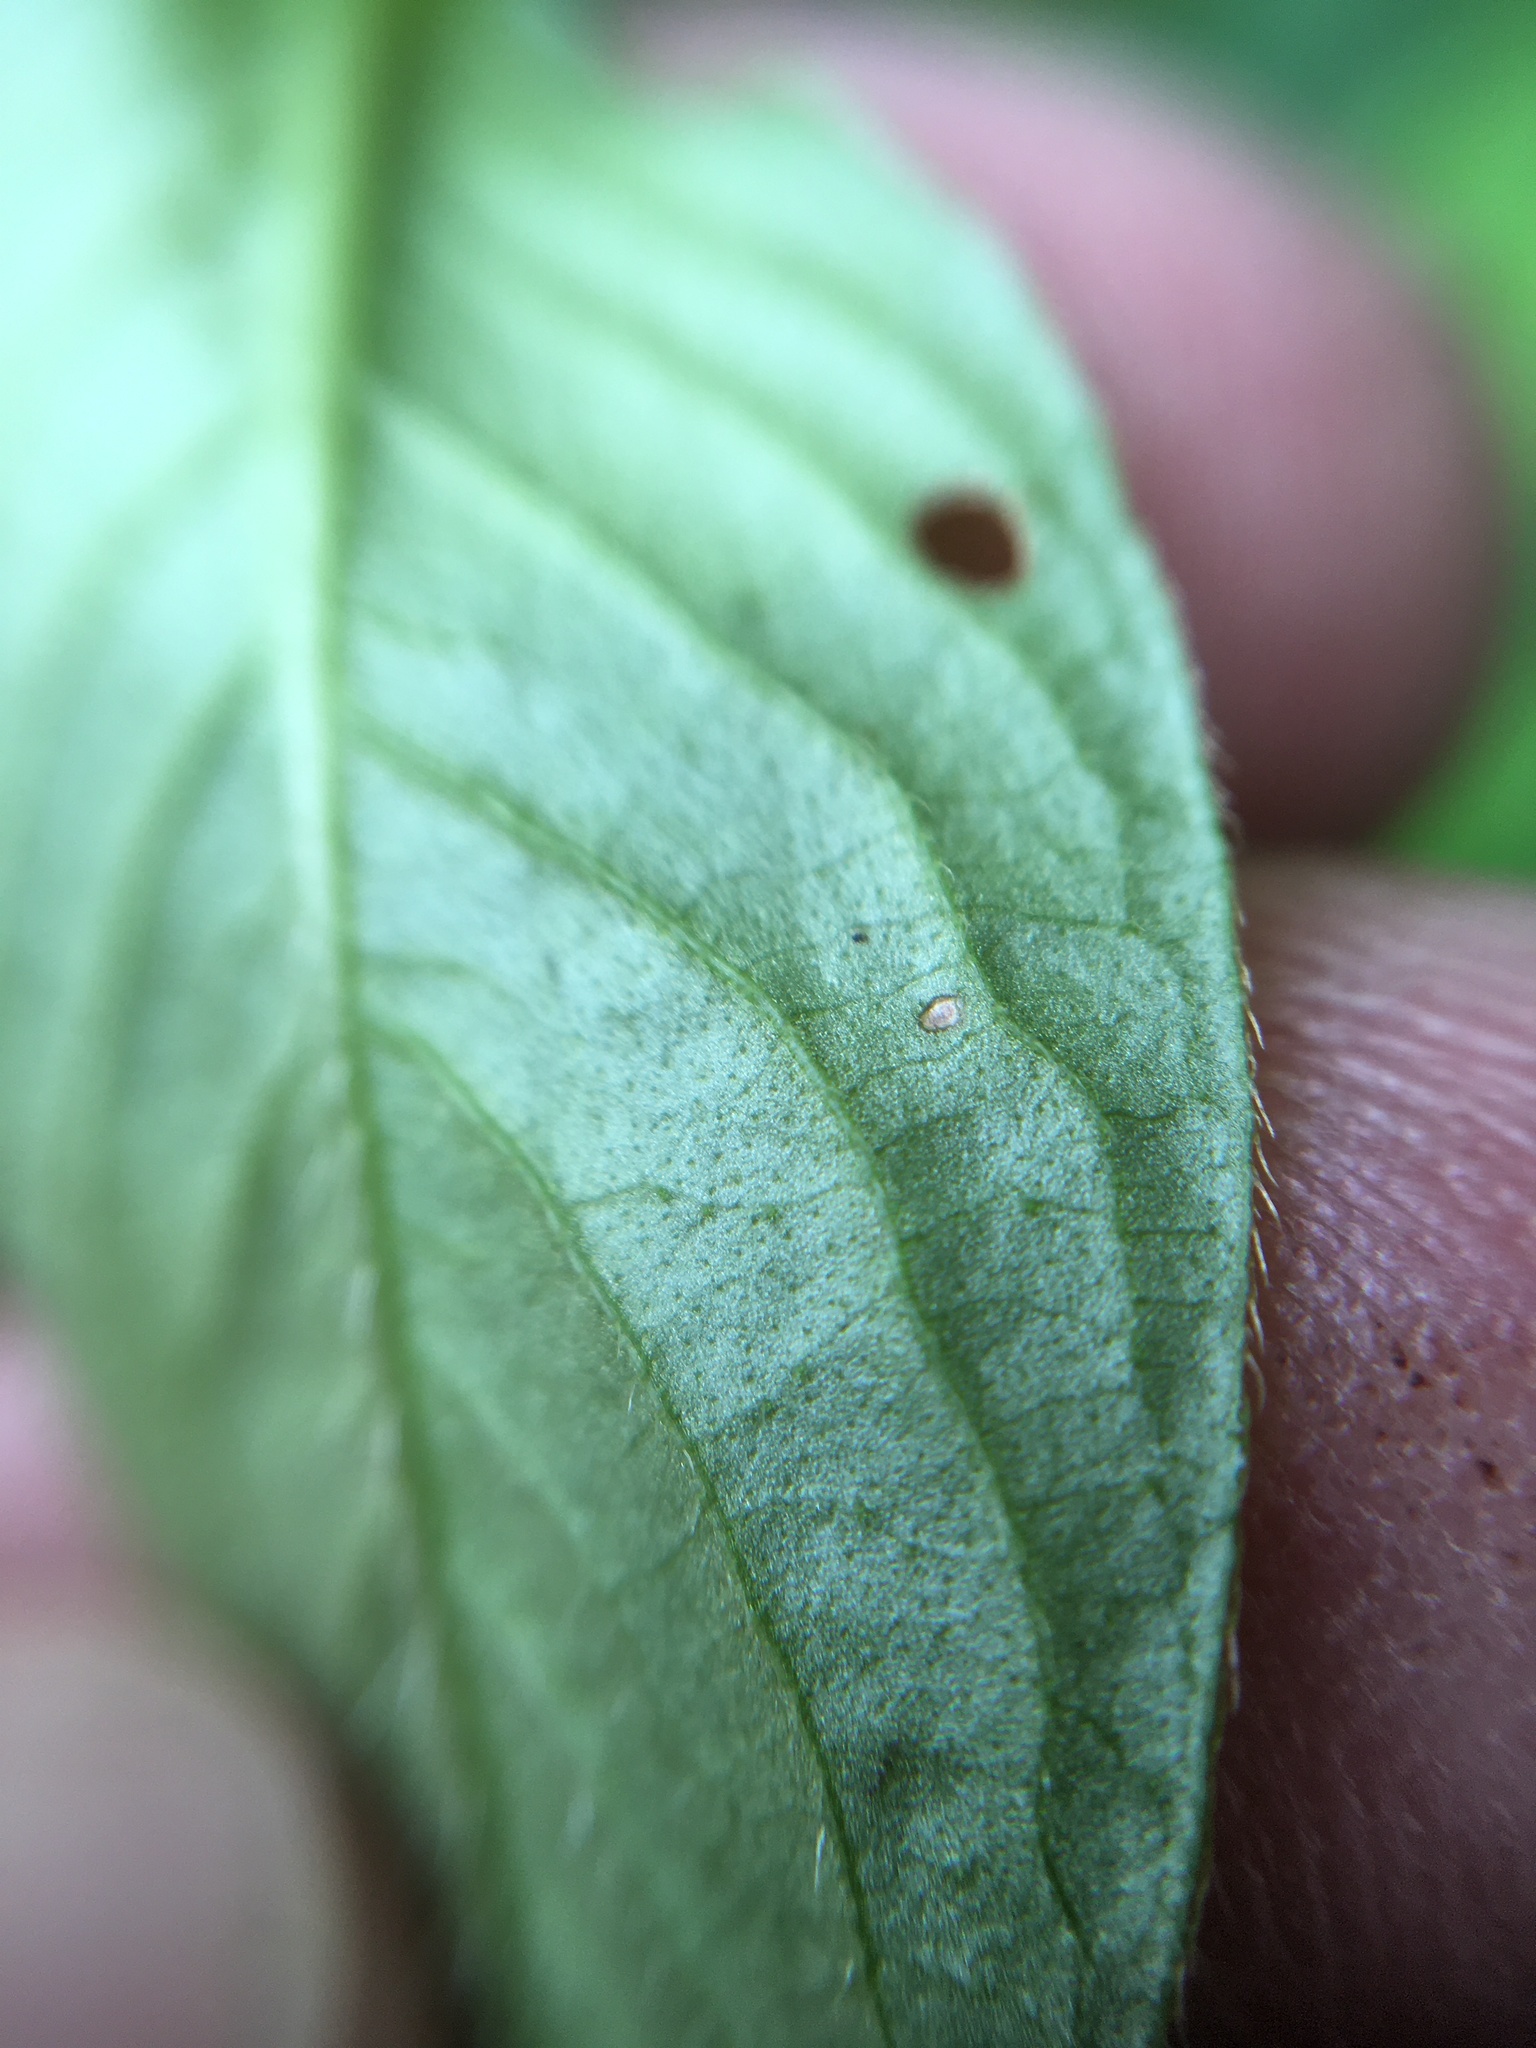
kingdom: Plantae
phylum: Tracheophyta
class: Magnoliopsida
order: Caryophyllales
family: Polygonaceae
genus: Persicaria
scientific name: Persicaria posumbu
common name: Oriental lady's thumb
